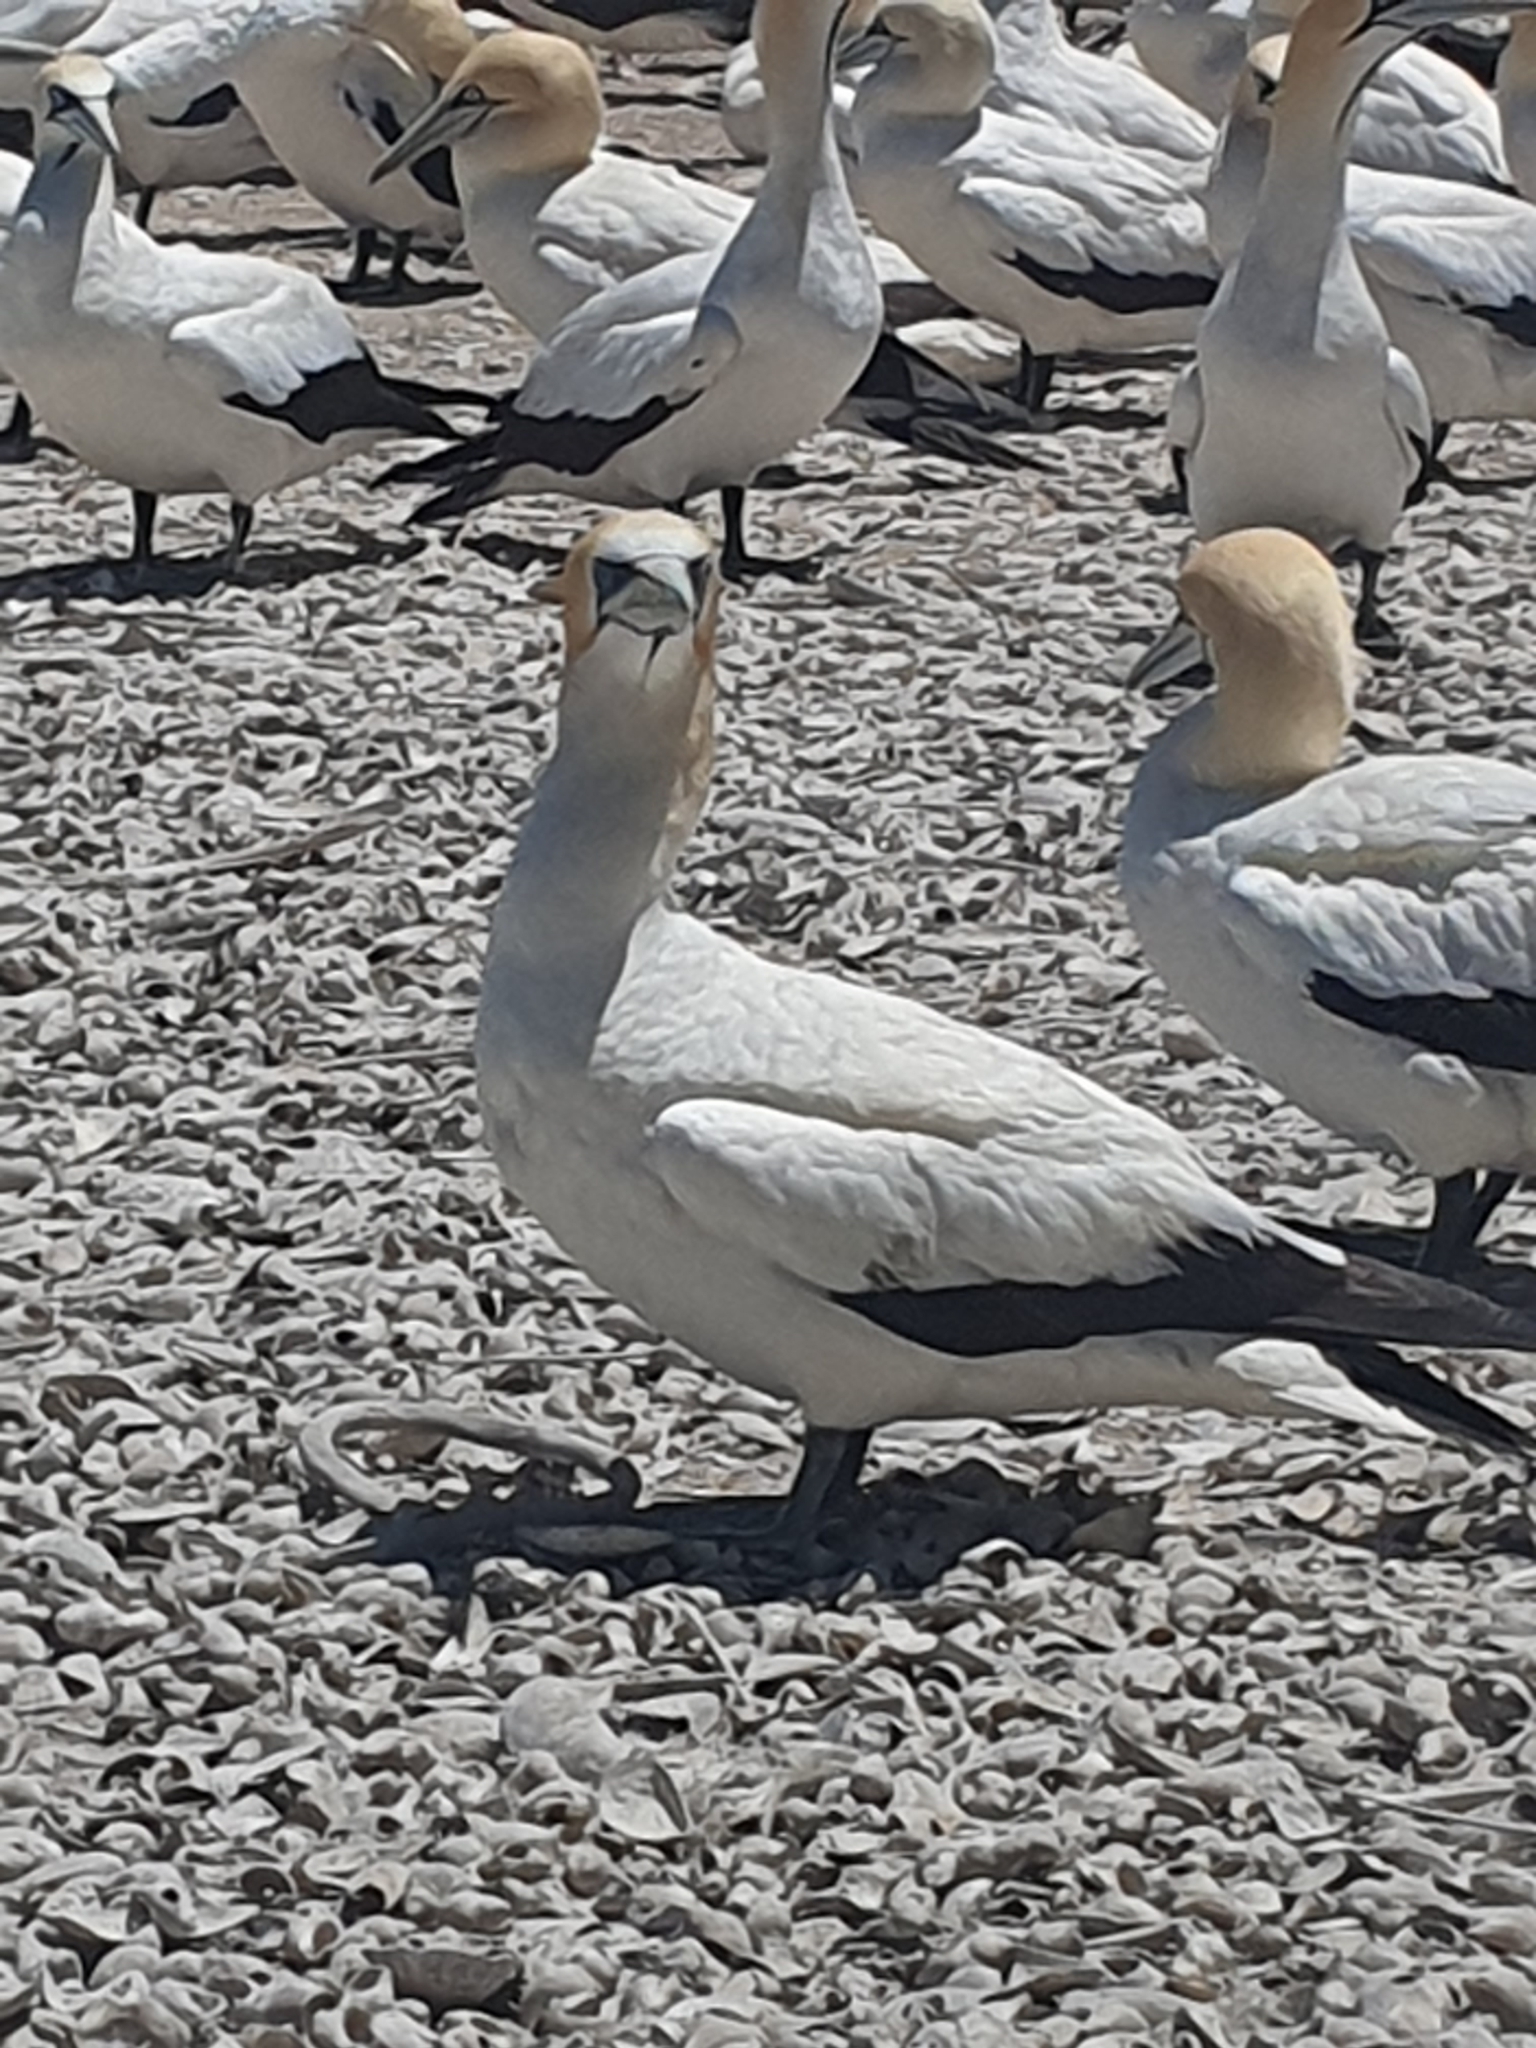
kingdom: Animalia
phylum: Chordata
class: Aves
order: Suliformes
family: Sulidae
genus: Morus
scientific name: Morus serrator
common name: Australasian gannet
